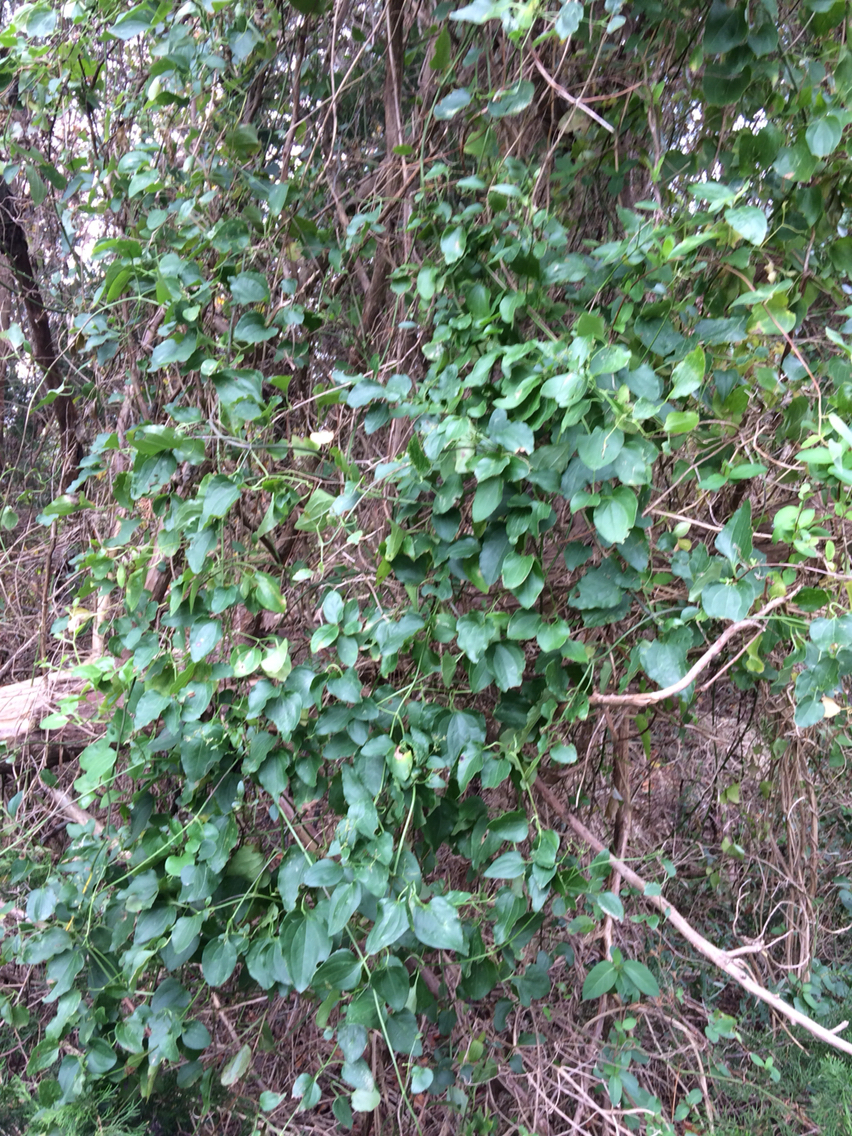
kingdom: Plantae
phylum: Tracheophyta
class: Magnoliopsida
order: Ranunculales
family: Ranunculaceae
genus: Clematis
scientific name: Clematis terniflora
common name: Sweet autumn clematis
